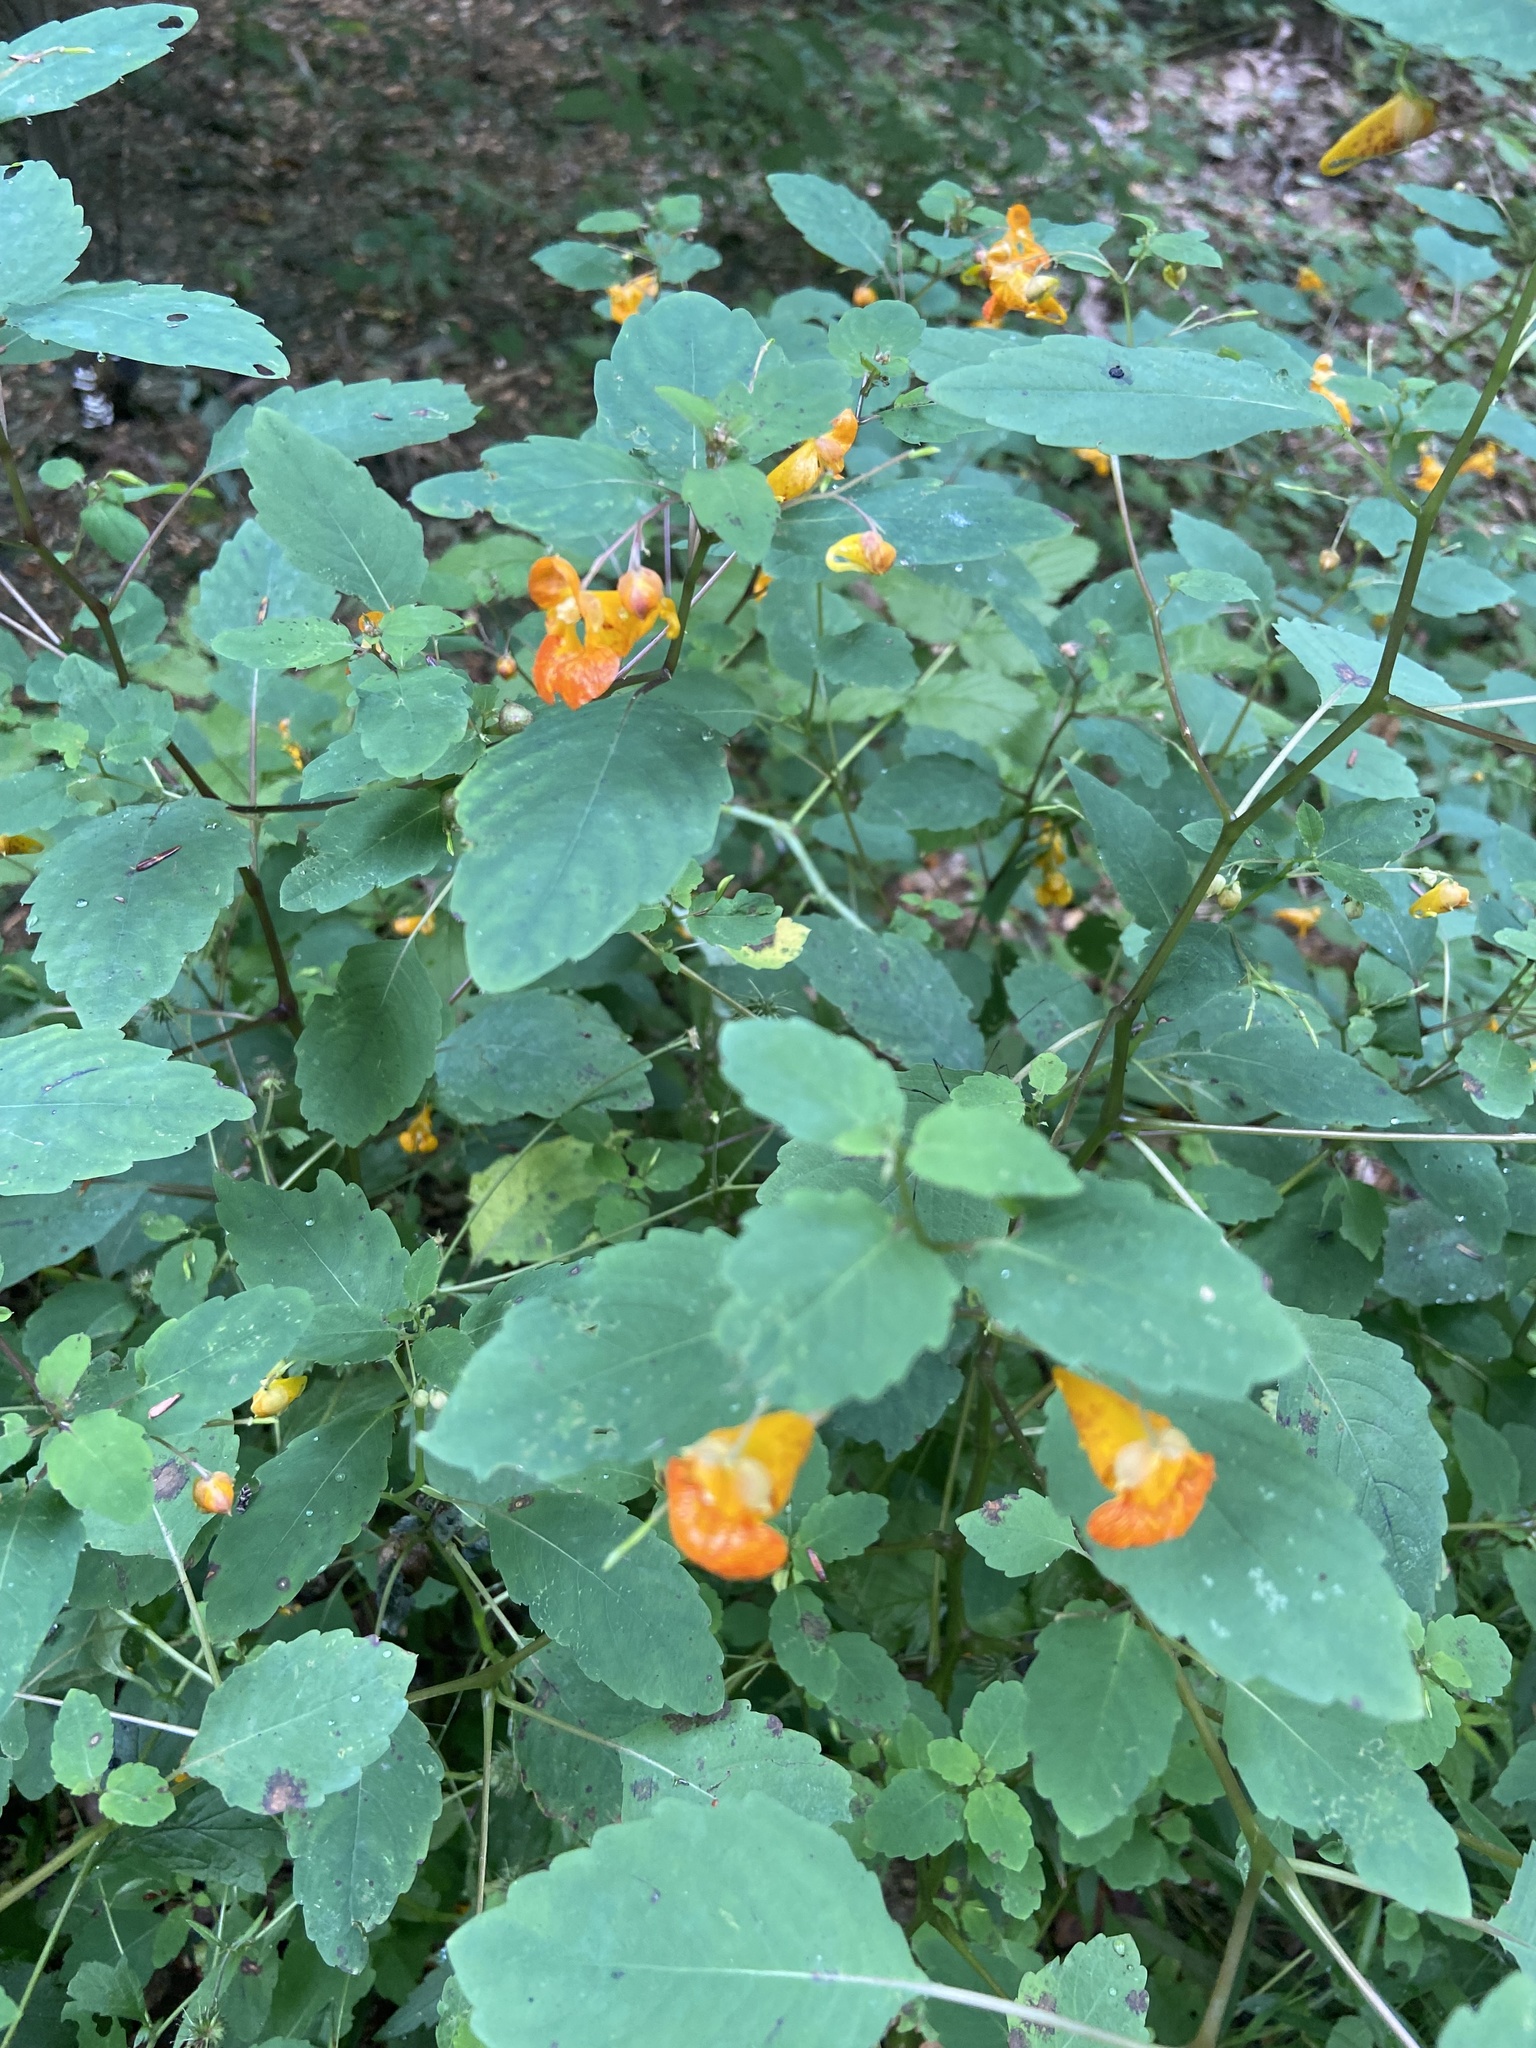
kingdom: Plantae
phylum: Tracheophyta
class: Magnoliopsida
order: Ericales
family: Balsaminaceae
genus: Impatiens
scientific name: Impatiens capensis
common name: Orange balsam
